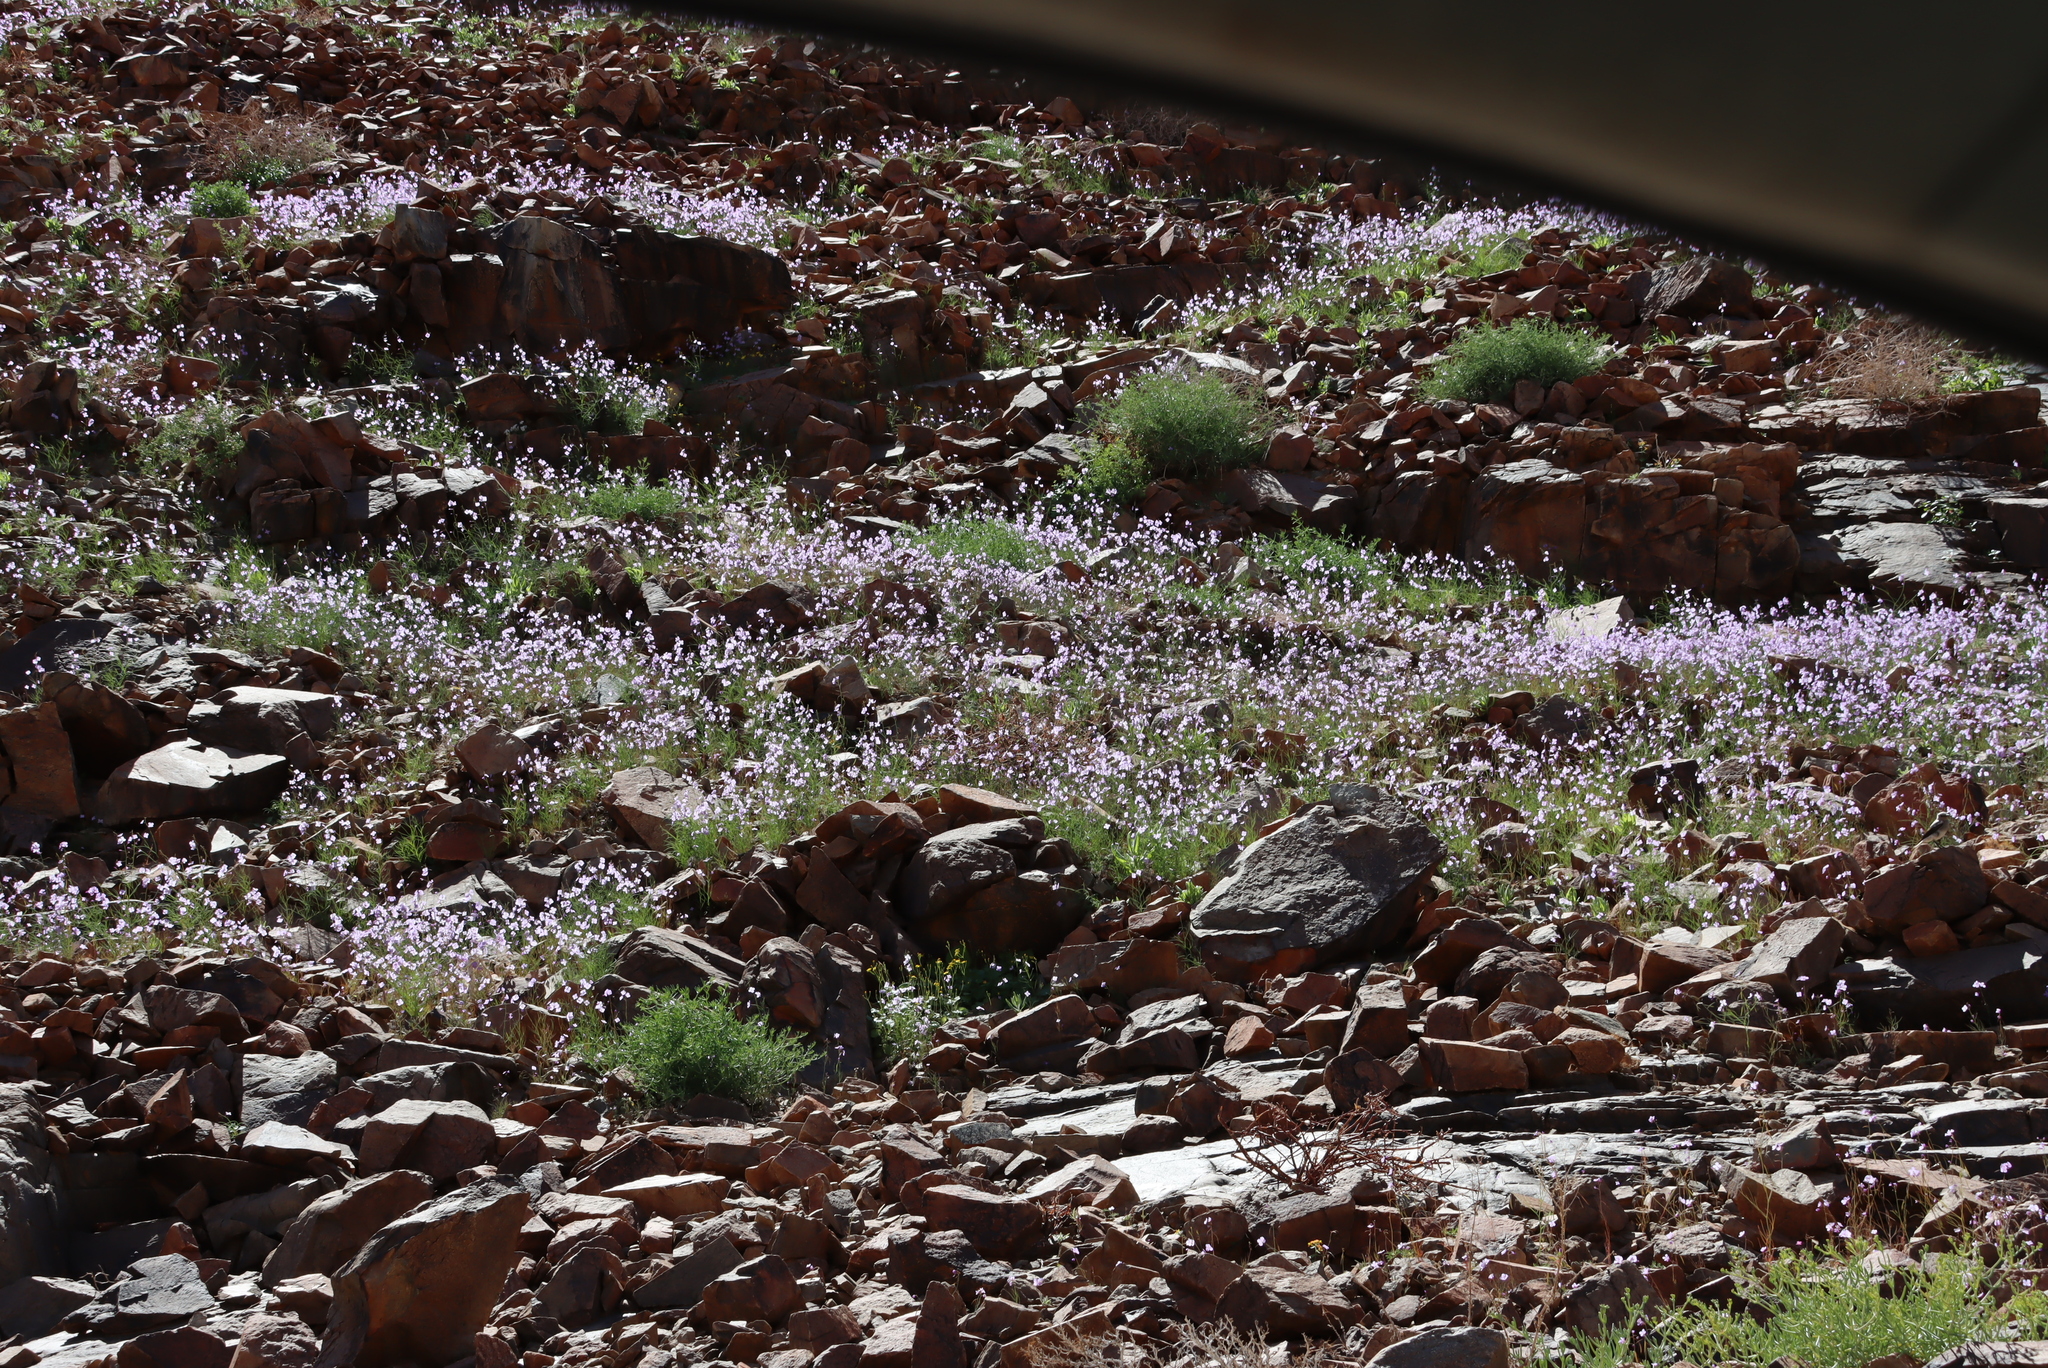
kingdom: Plantae
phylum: Tracheophyta
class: Magnoliopsida
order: Brassicales
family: Brassicaceae
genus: Heliophila
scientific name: Heliophila trifurca
